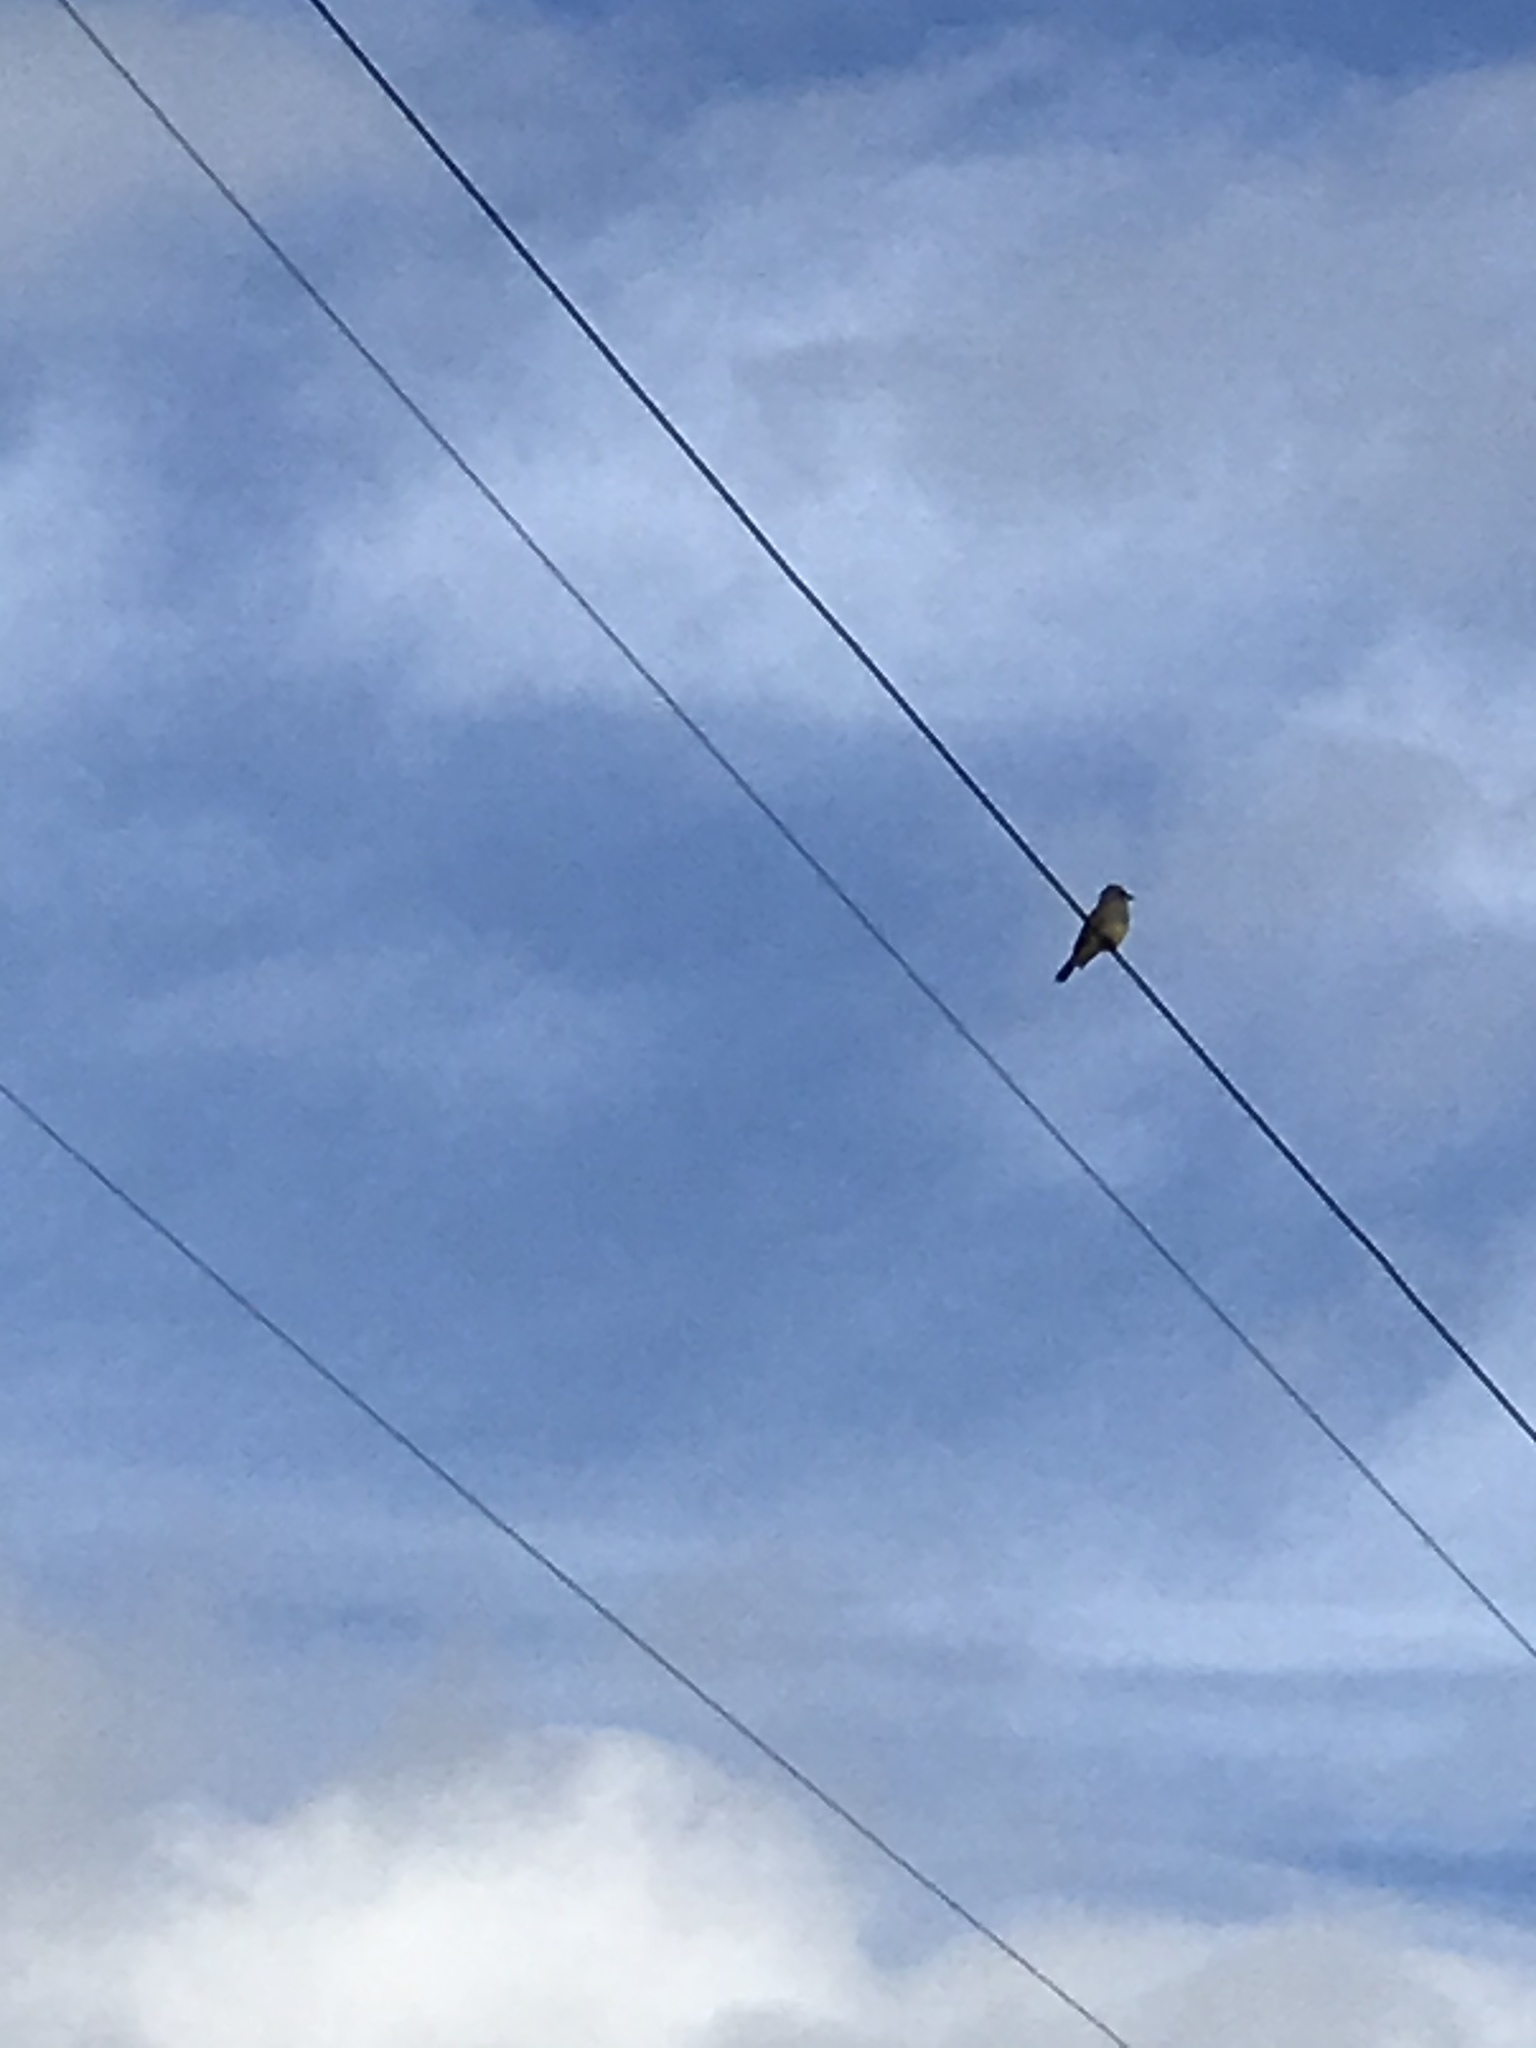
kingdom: Animalia
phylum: Chordata
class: Aves
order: Passeriformes
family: Tyrannidae
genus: Tyrannus
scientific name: Tyrannus vociferans
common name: Cassin's kingbird
